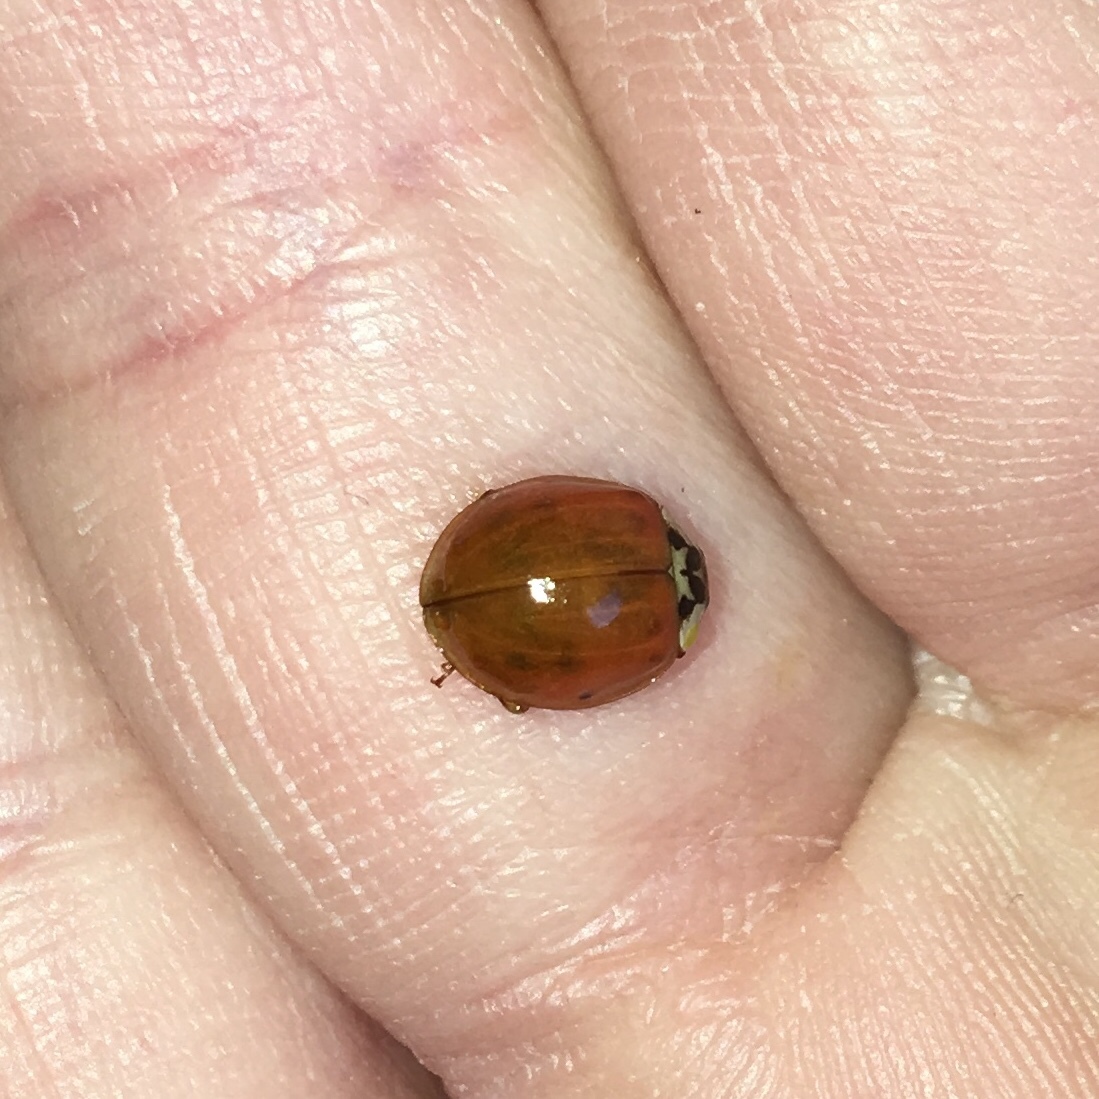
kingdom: Animalia
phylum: Arthropoda
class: Insecta
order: Coleoptera
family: Coccinellidae
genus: Harmonia
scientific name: Harmonia axyridis
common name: Harlequin ladybird
